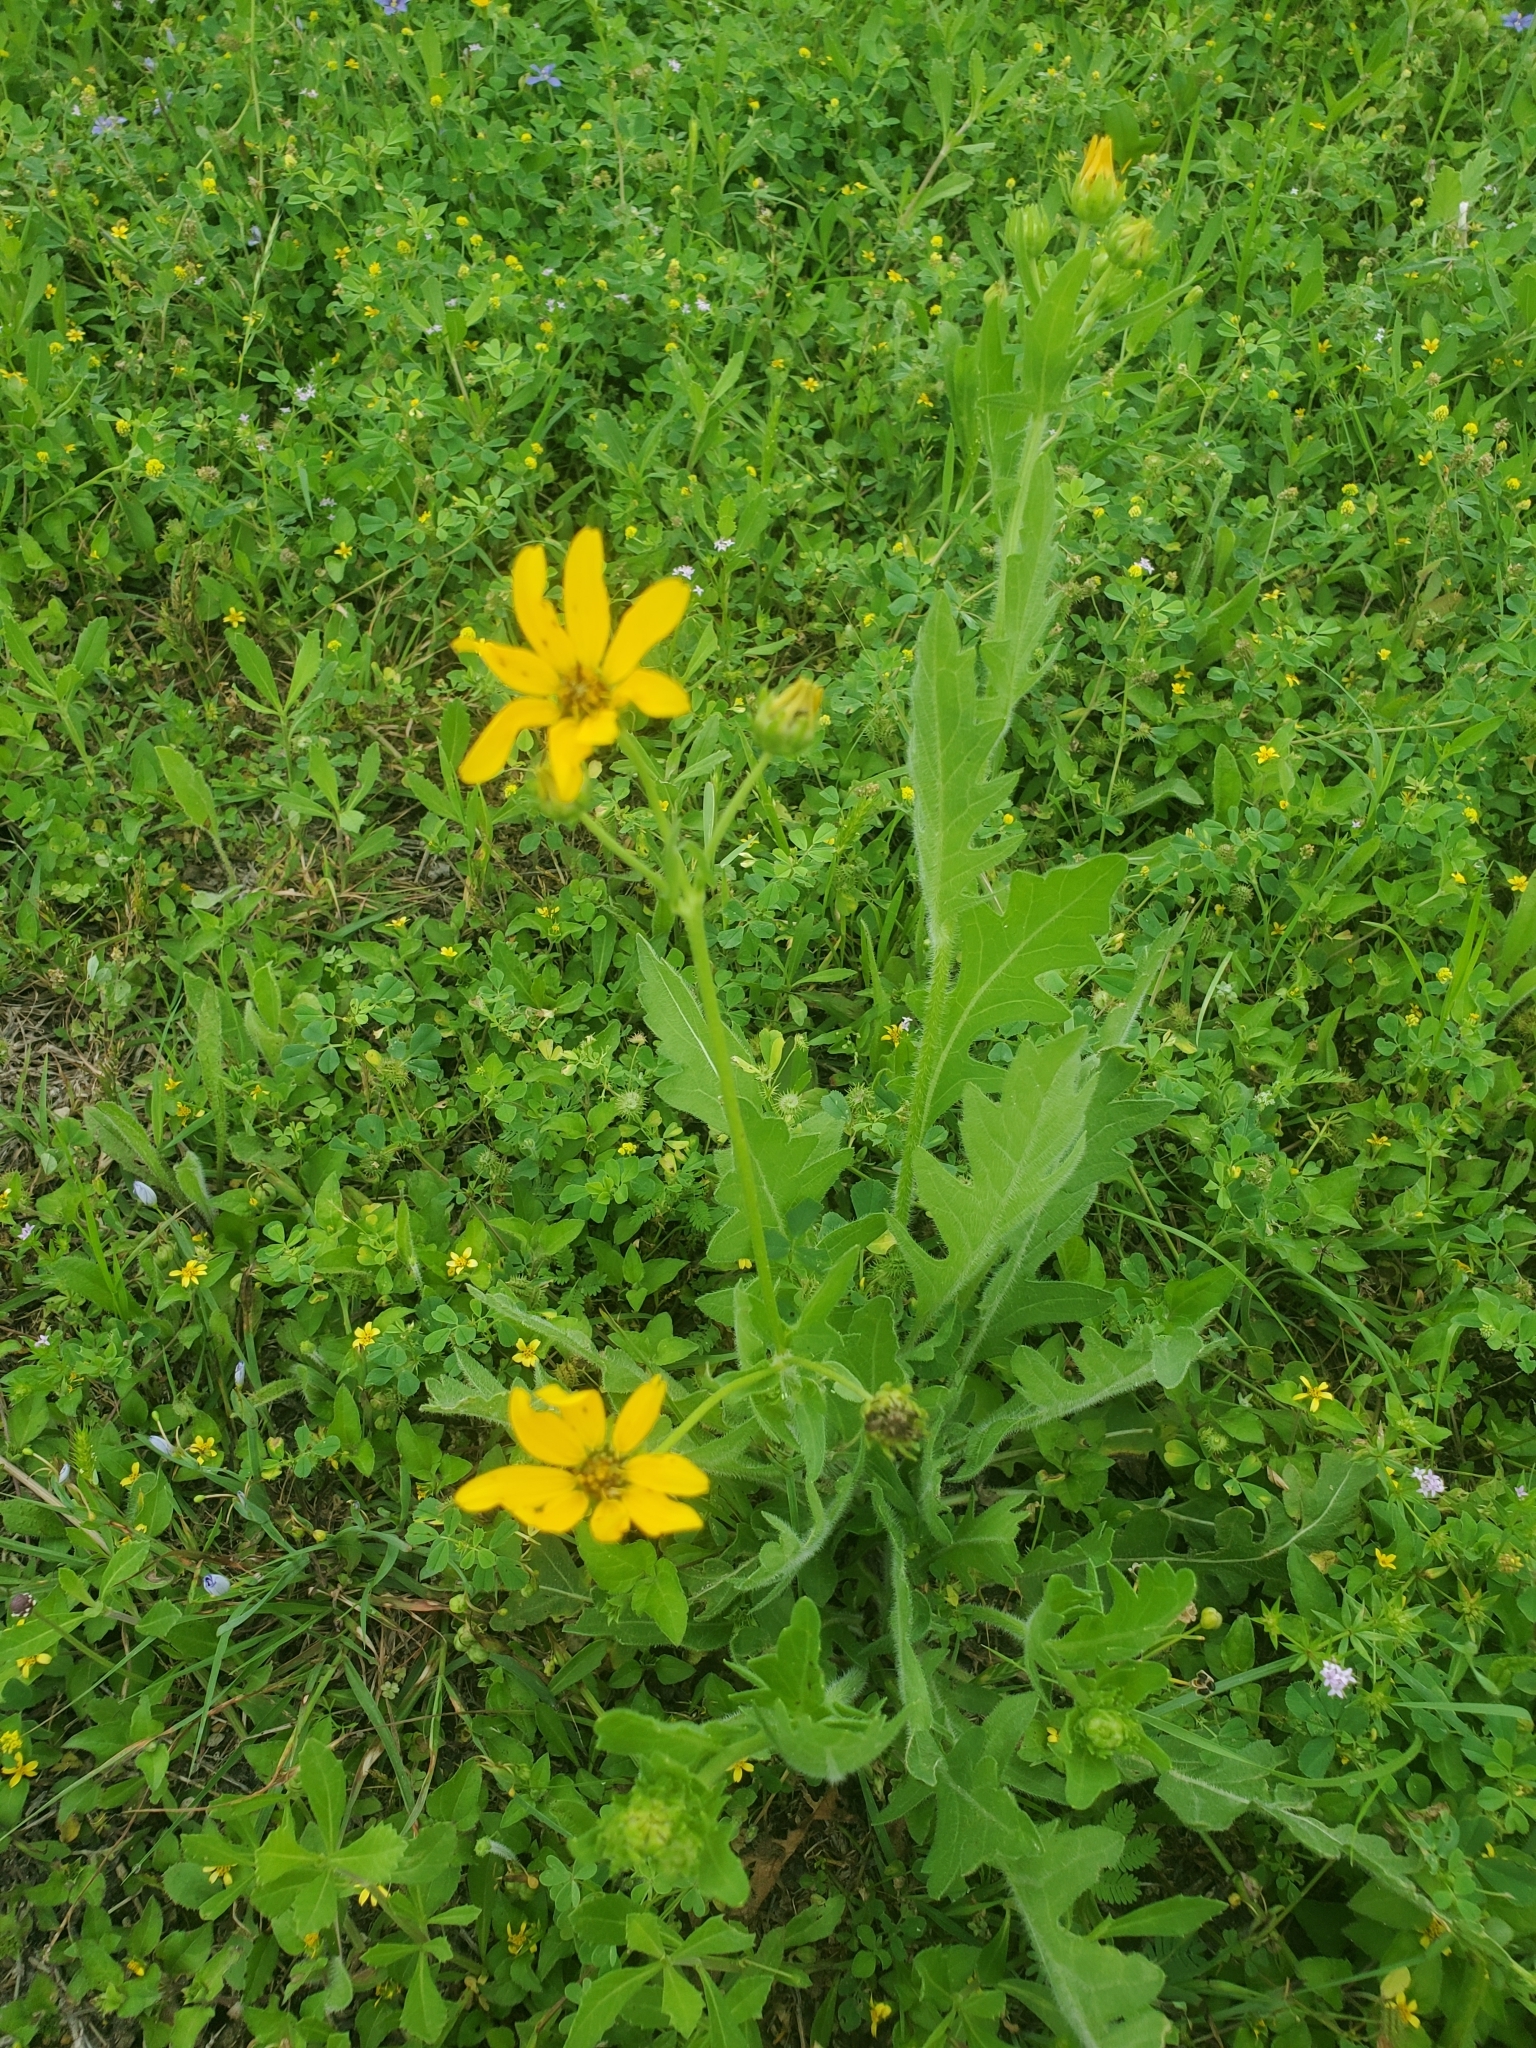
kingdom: Plantae
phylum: Tracheophyta
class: Magnoliopsida
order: Asterales
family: Asteraceae
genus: Engelmannia
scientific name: Engelmannia peristenia
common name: Engelmann's daisy
